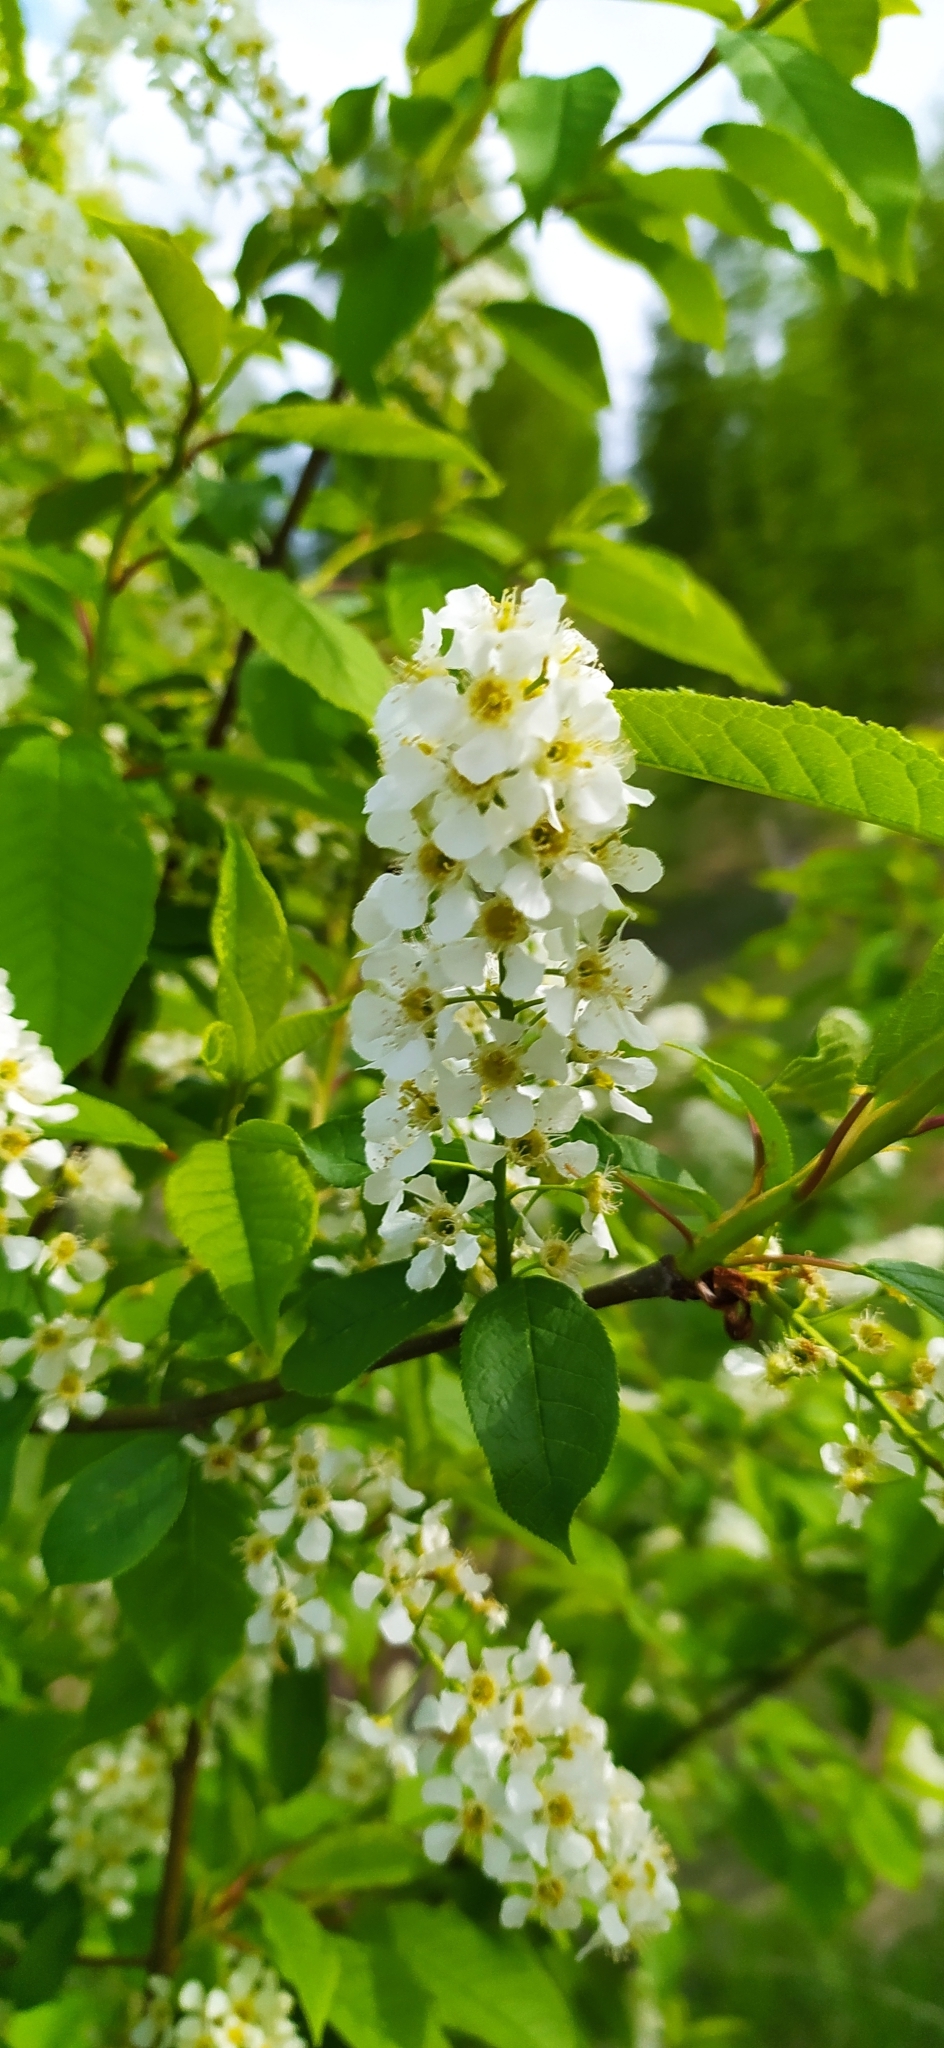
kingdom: Plantae
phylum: Tracheophyta
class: Magnoliopsida
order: Rosales
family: Rosaceae
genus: Prunus
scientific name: Prunus padus
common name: Bird cherry
